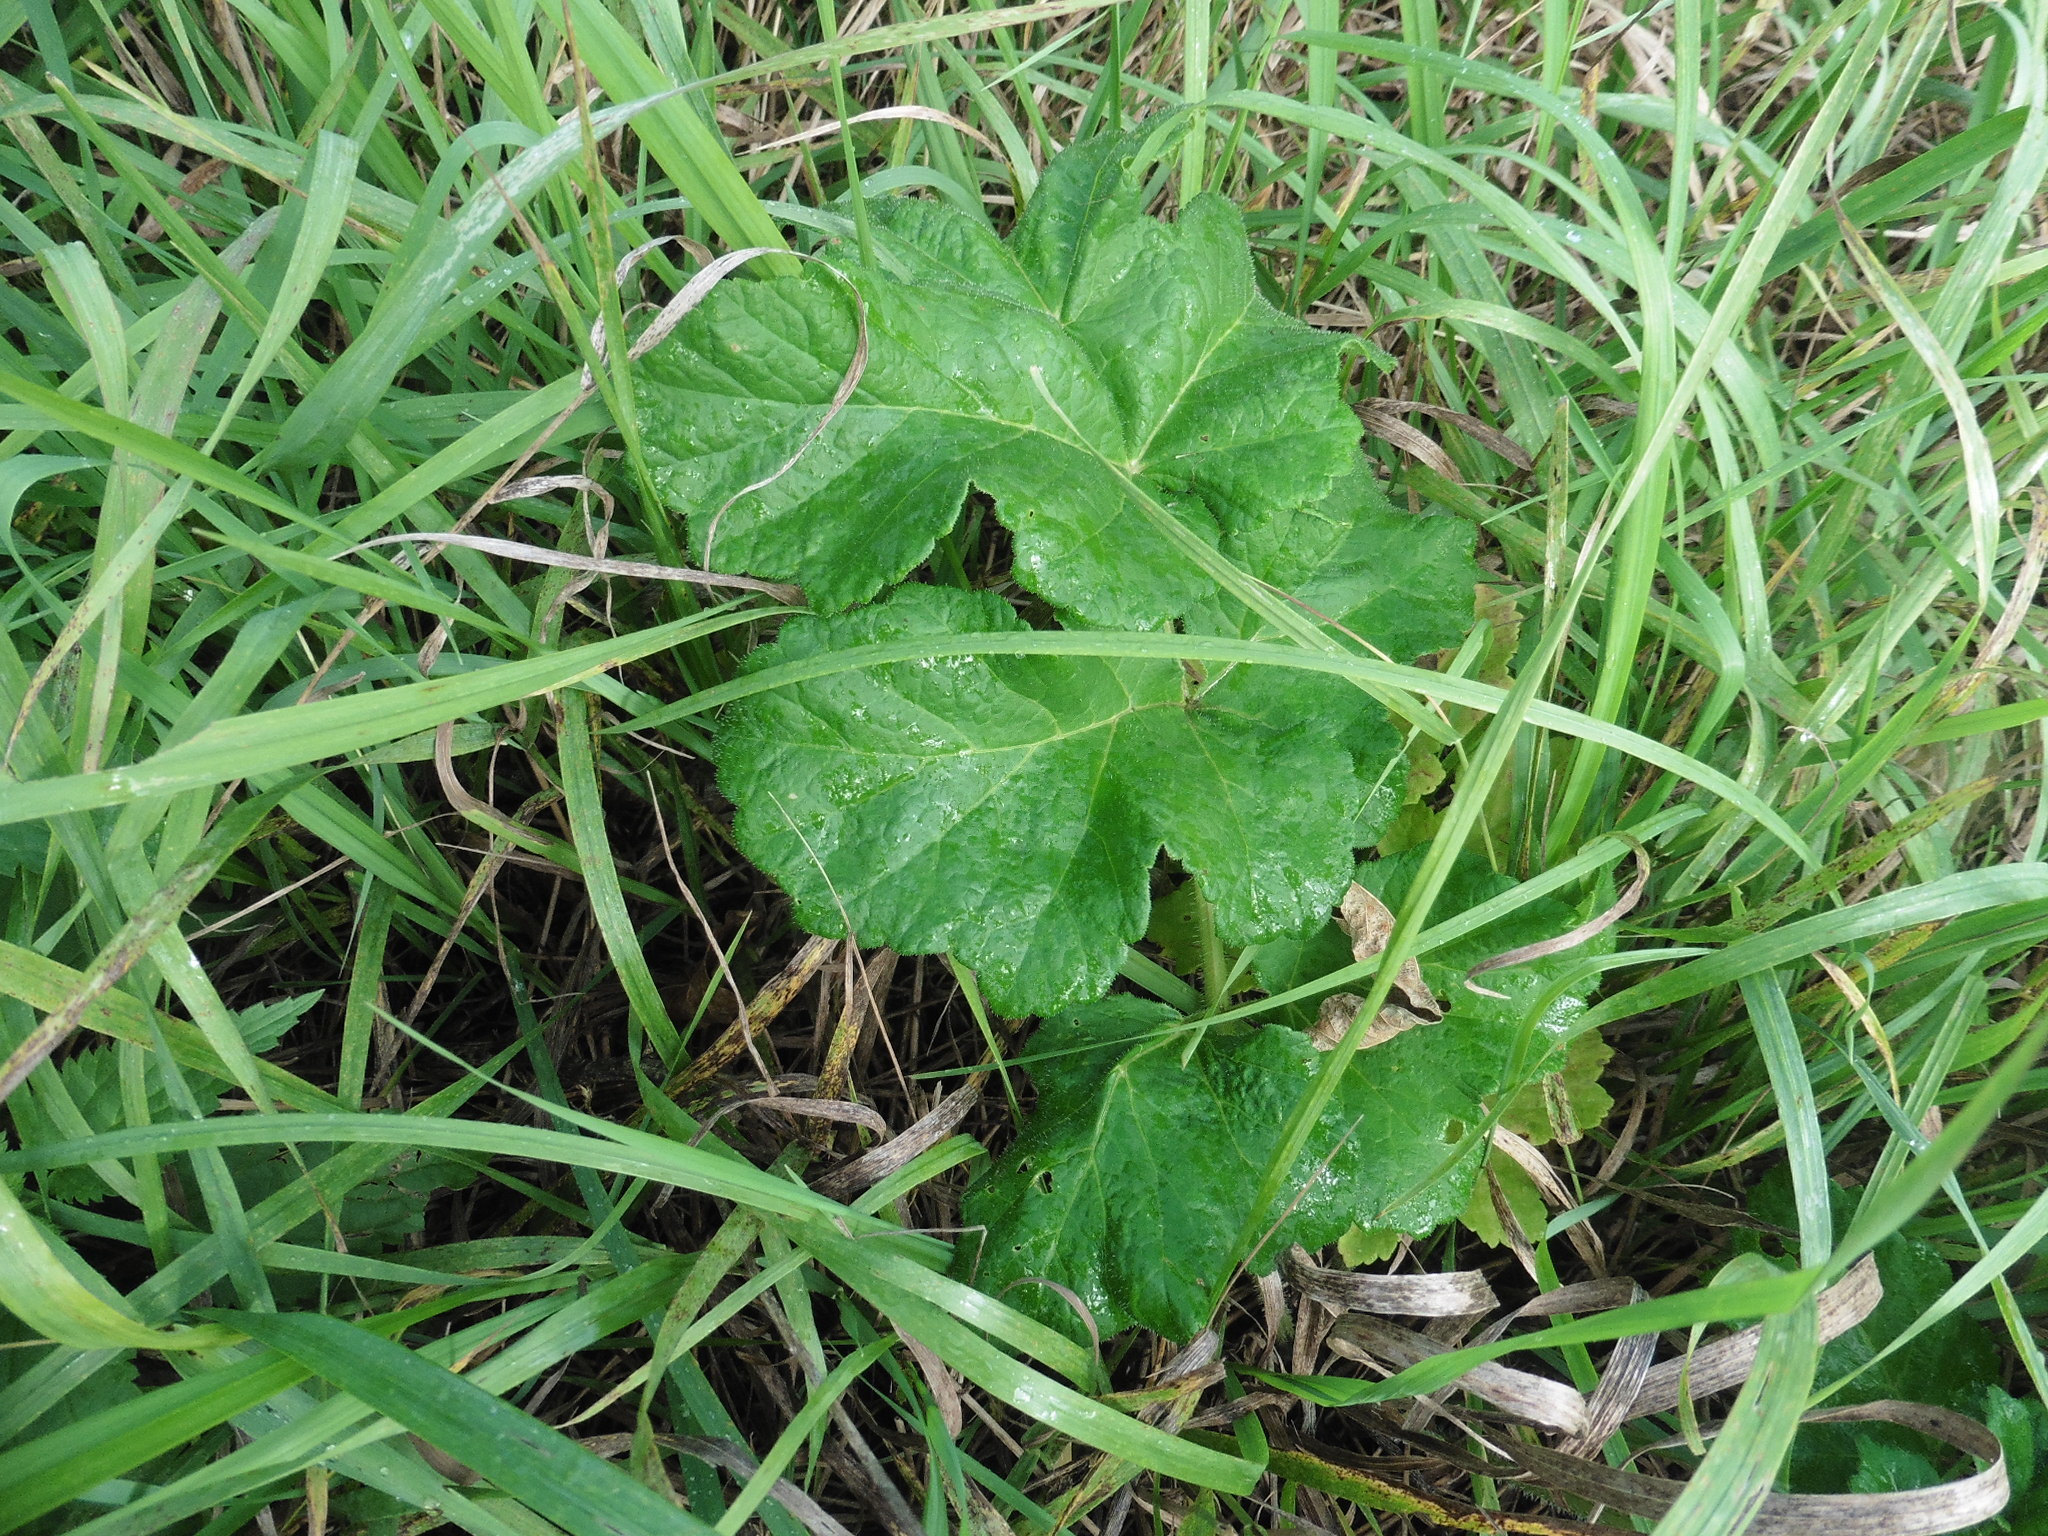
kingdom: Plantae
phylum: Tracheophyta
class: Magnoliopsida
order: Apiales
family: Apiaceae
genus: Heracleum
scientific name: Heracleum sphondylium
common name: Hogweed
